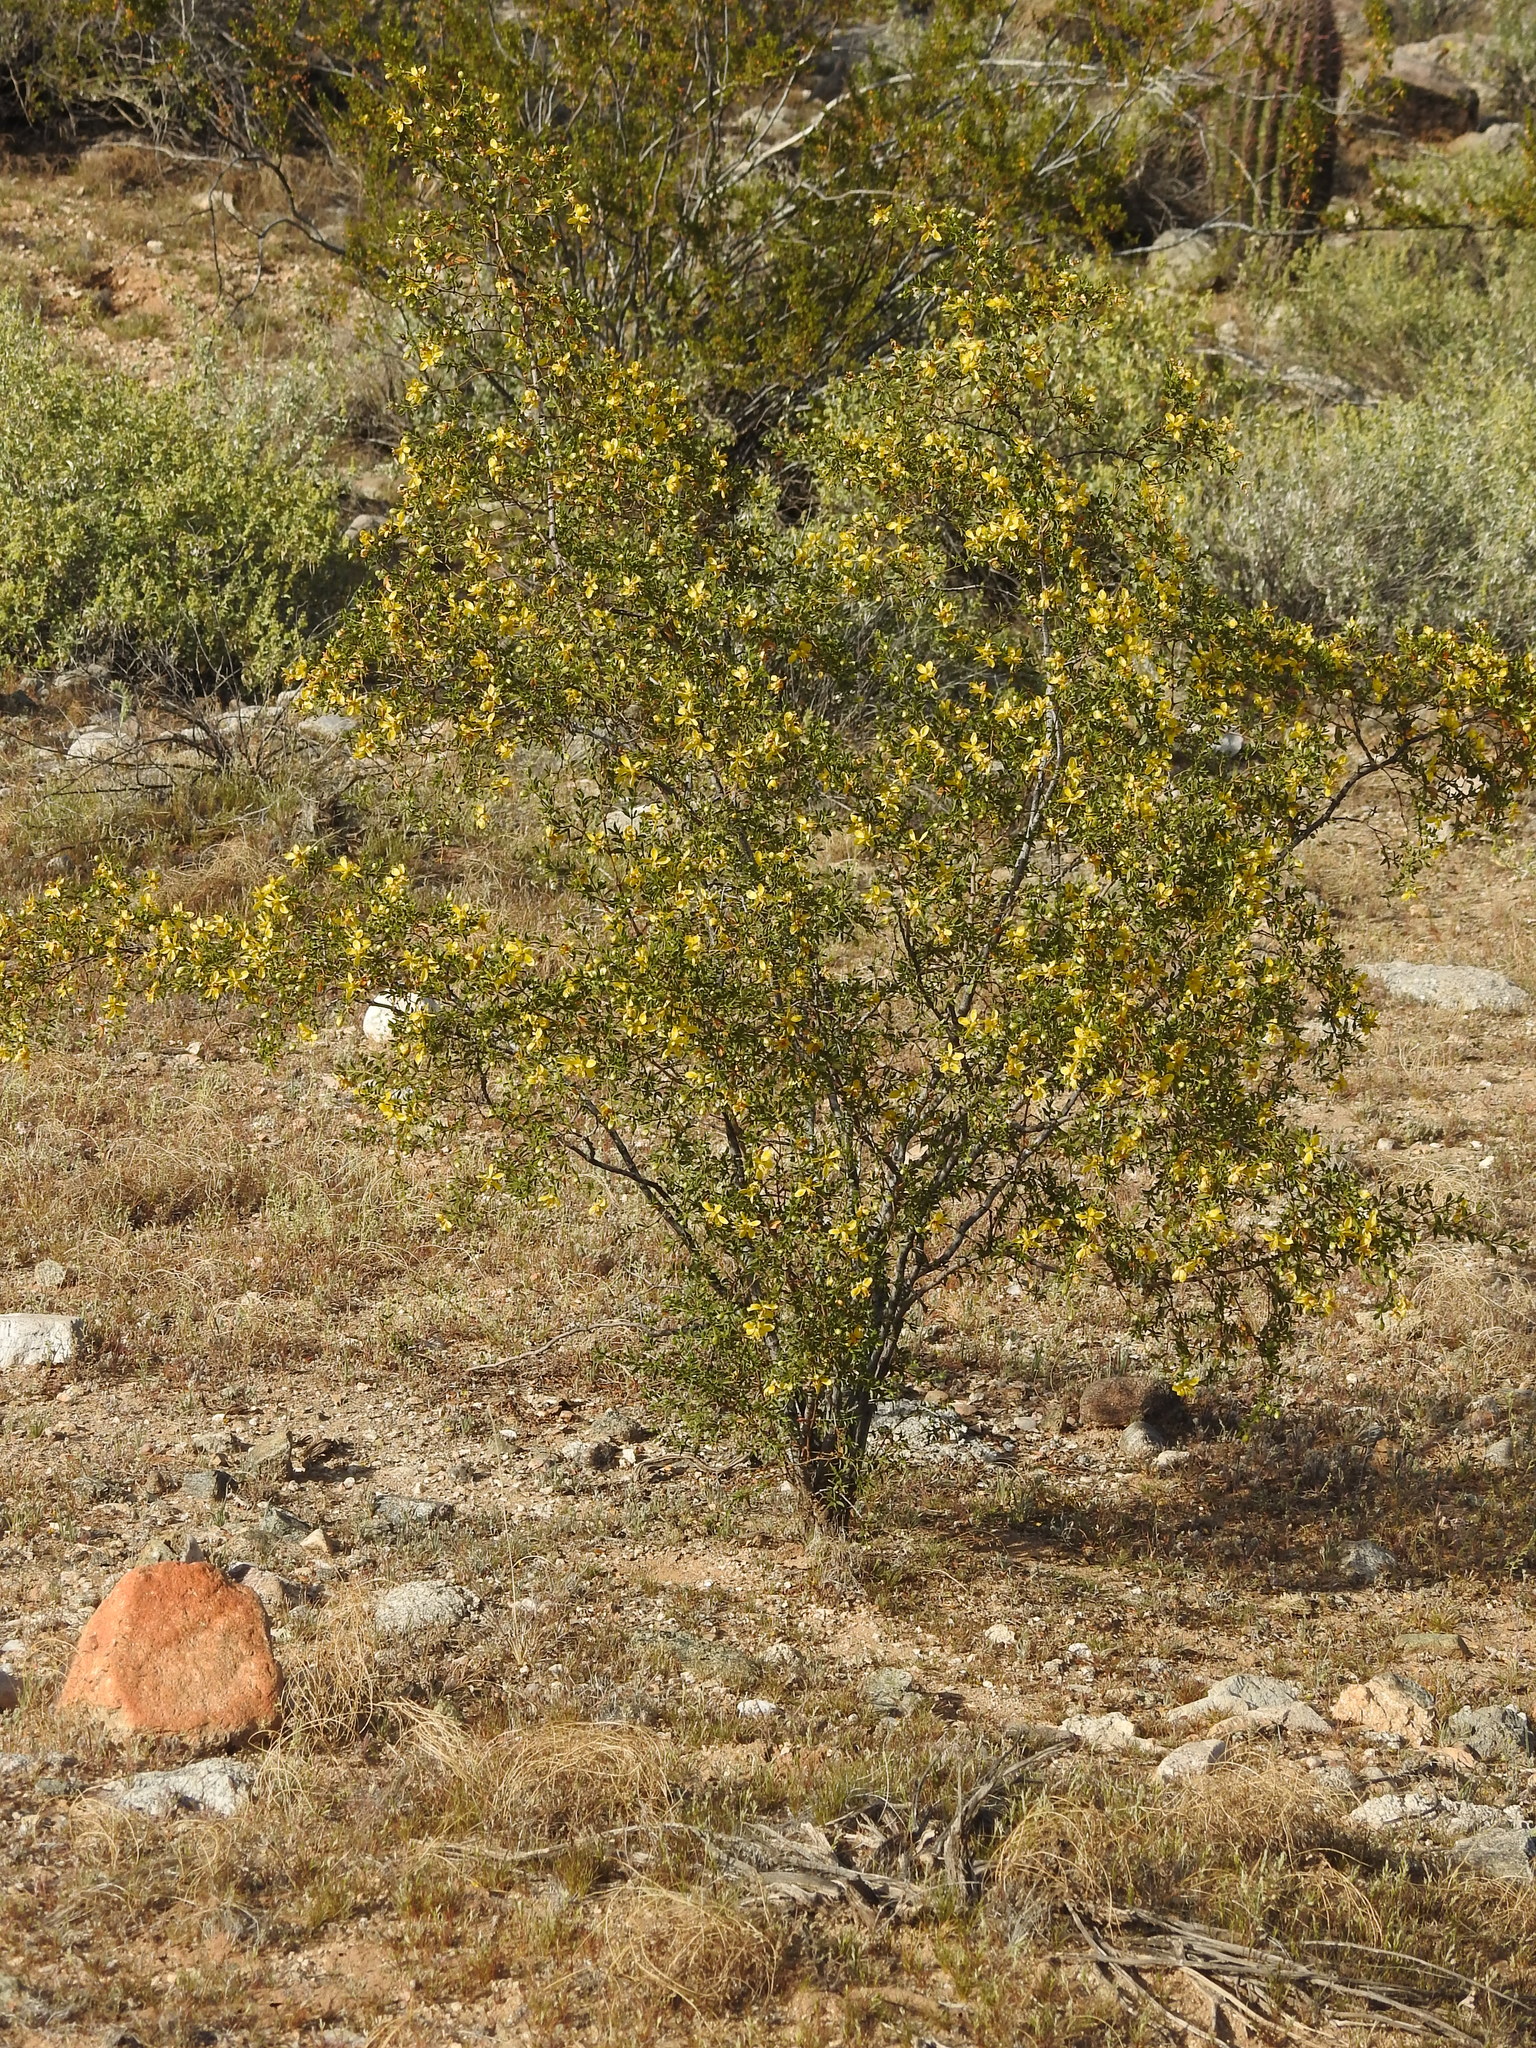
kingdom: Plantae
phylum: Tracheophyta
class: Magnoliopsida
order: Zygophyllales
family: Zygophyllaceae
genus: Larrea
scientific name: Larrea tridentata
